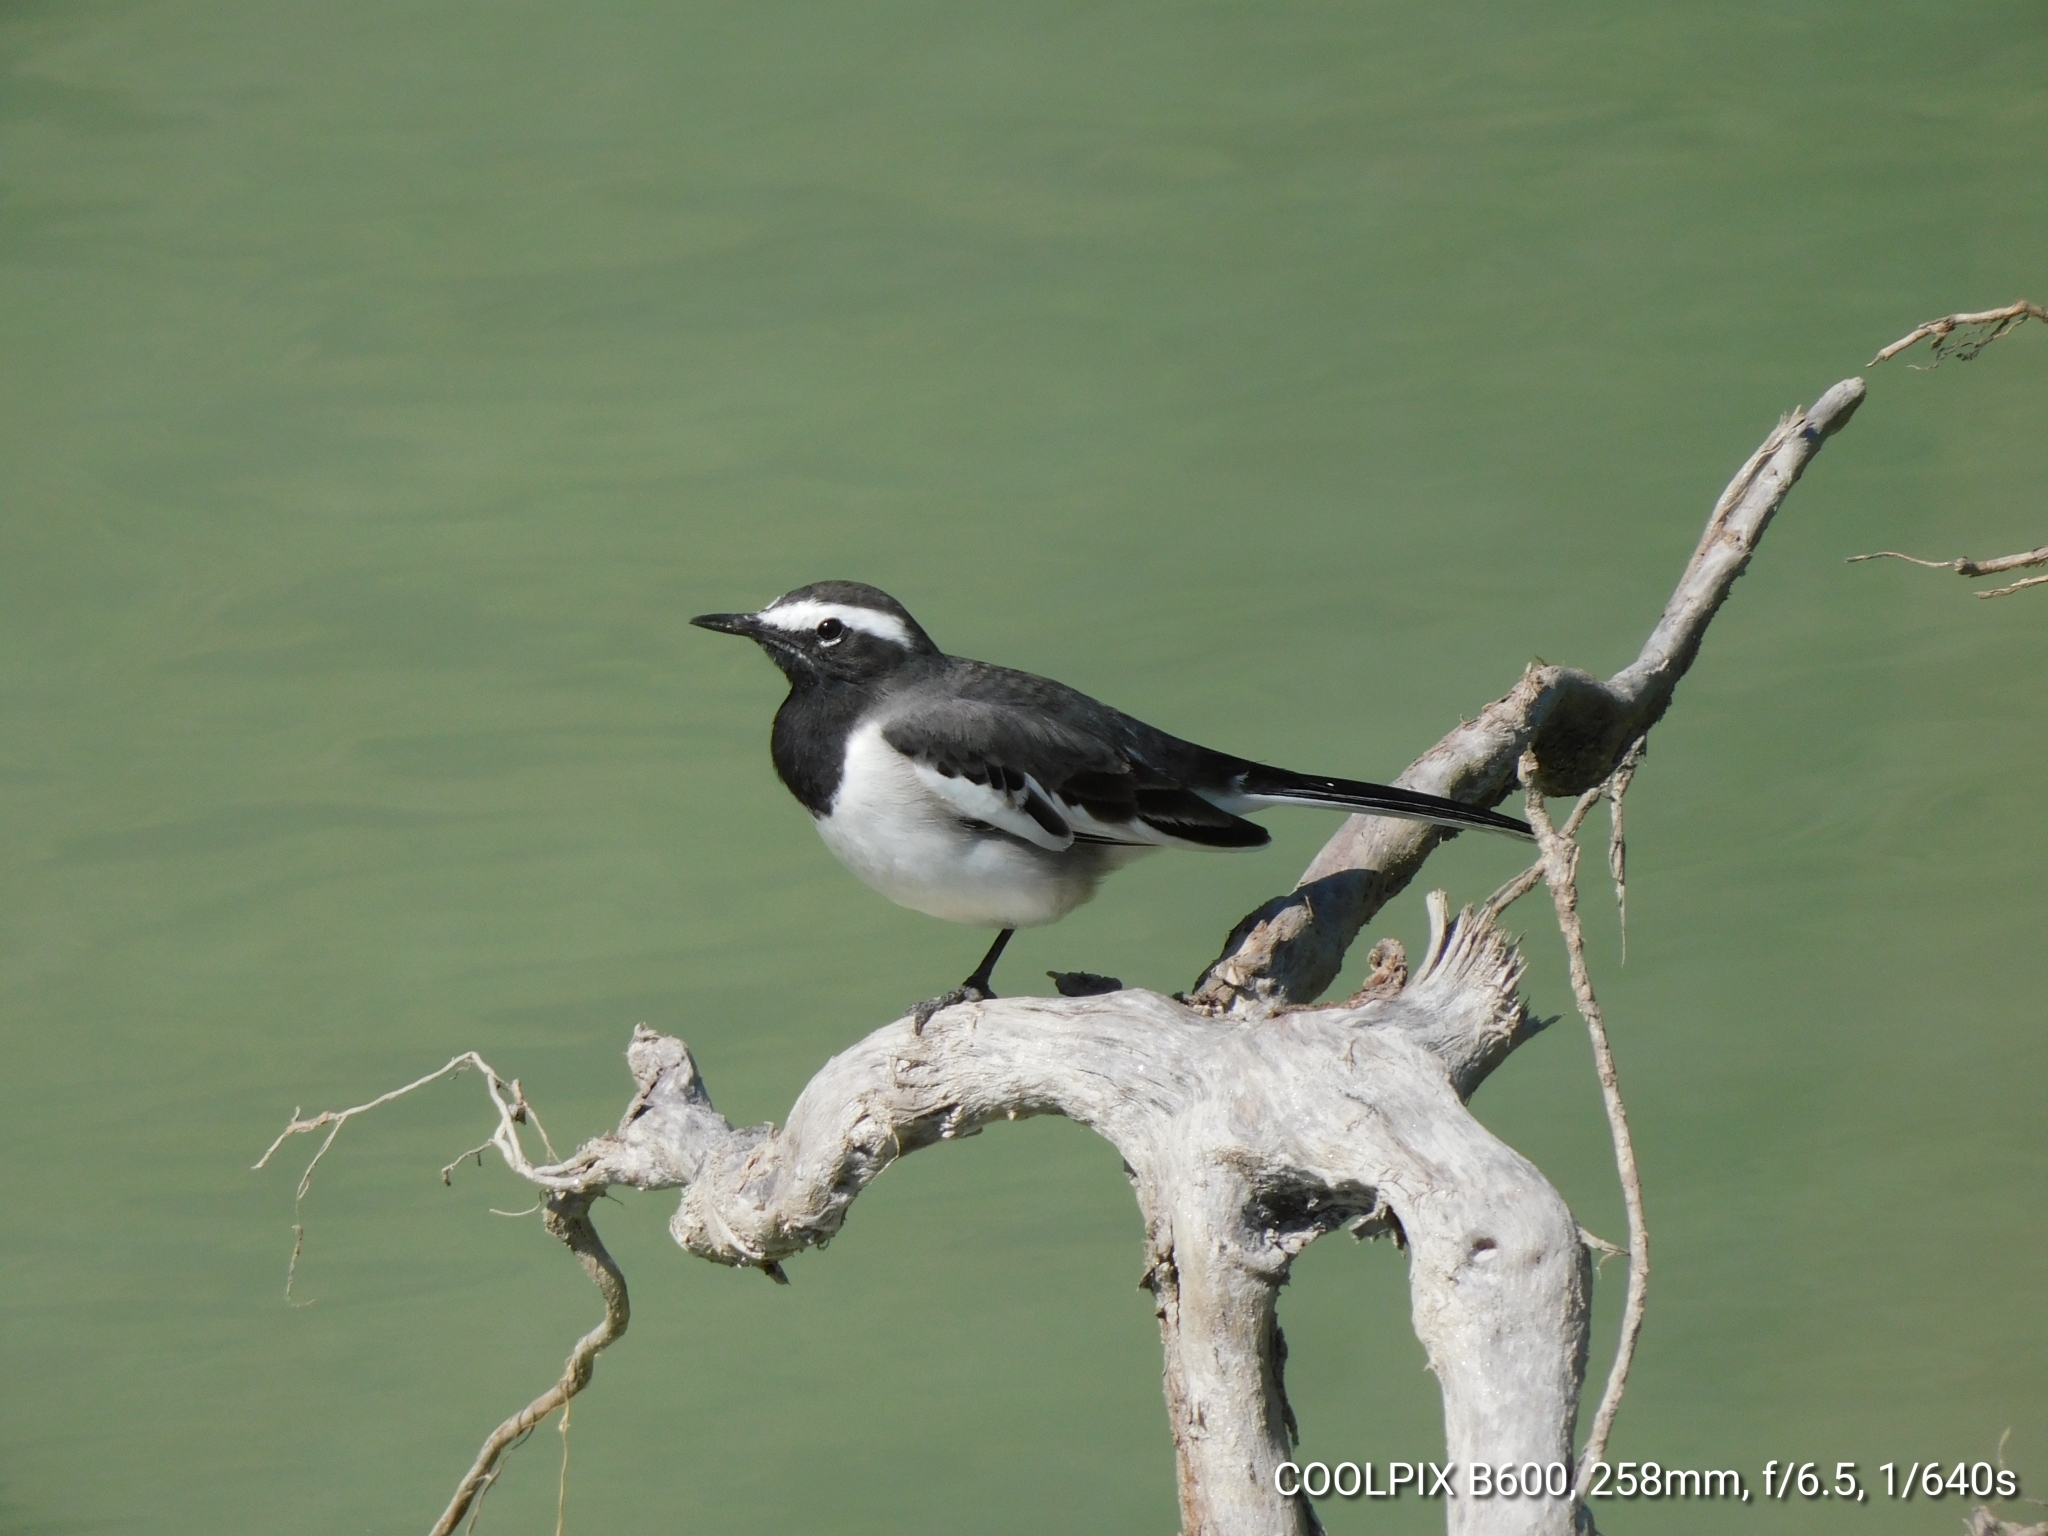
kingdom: Animalia
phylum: Chordata
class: Aves
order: Passeriformes
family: Motacillidae
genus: Motacilla
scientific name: Motacilla maderaspatensis
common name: White-browed wagtail
